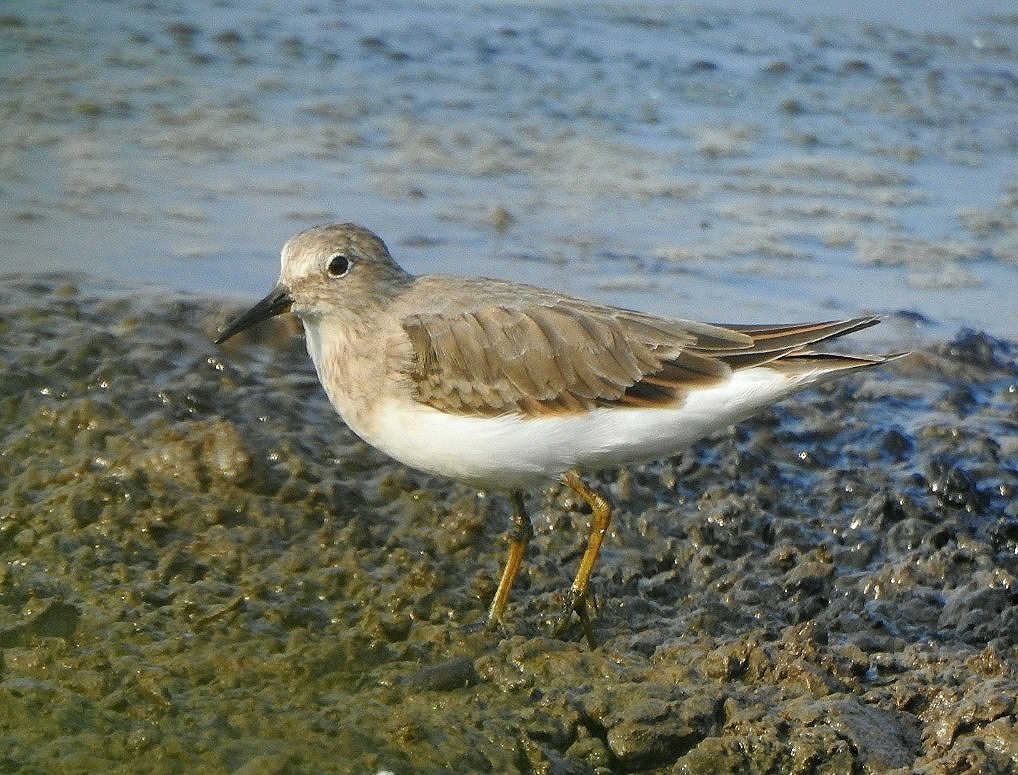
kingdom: Animalia
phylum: Chordata
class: Aves
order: Charadriiformes
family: Scolopacidae
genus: Calidris
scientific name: Calidris temminckii
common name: Temminck's stint
